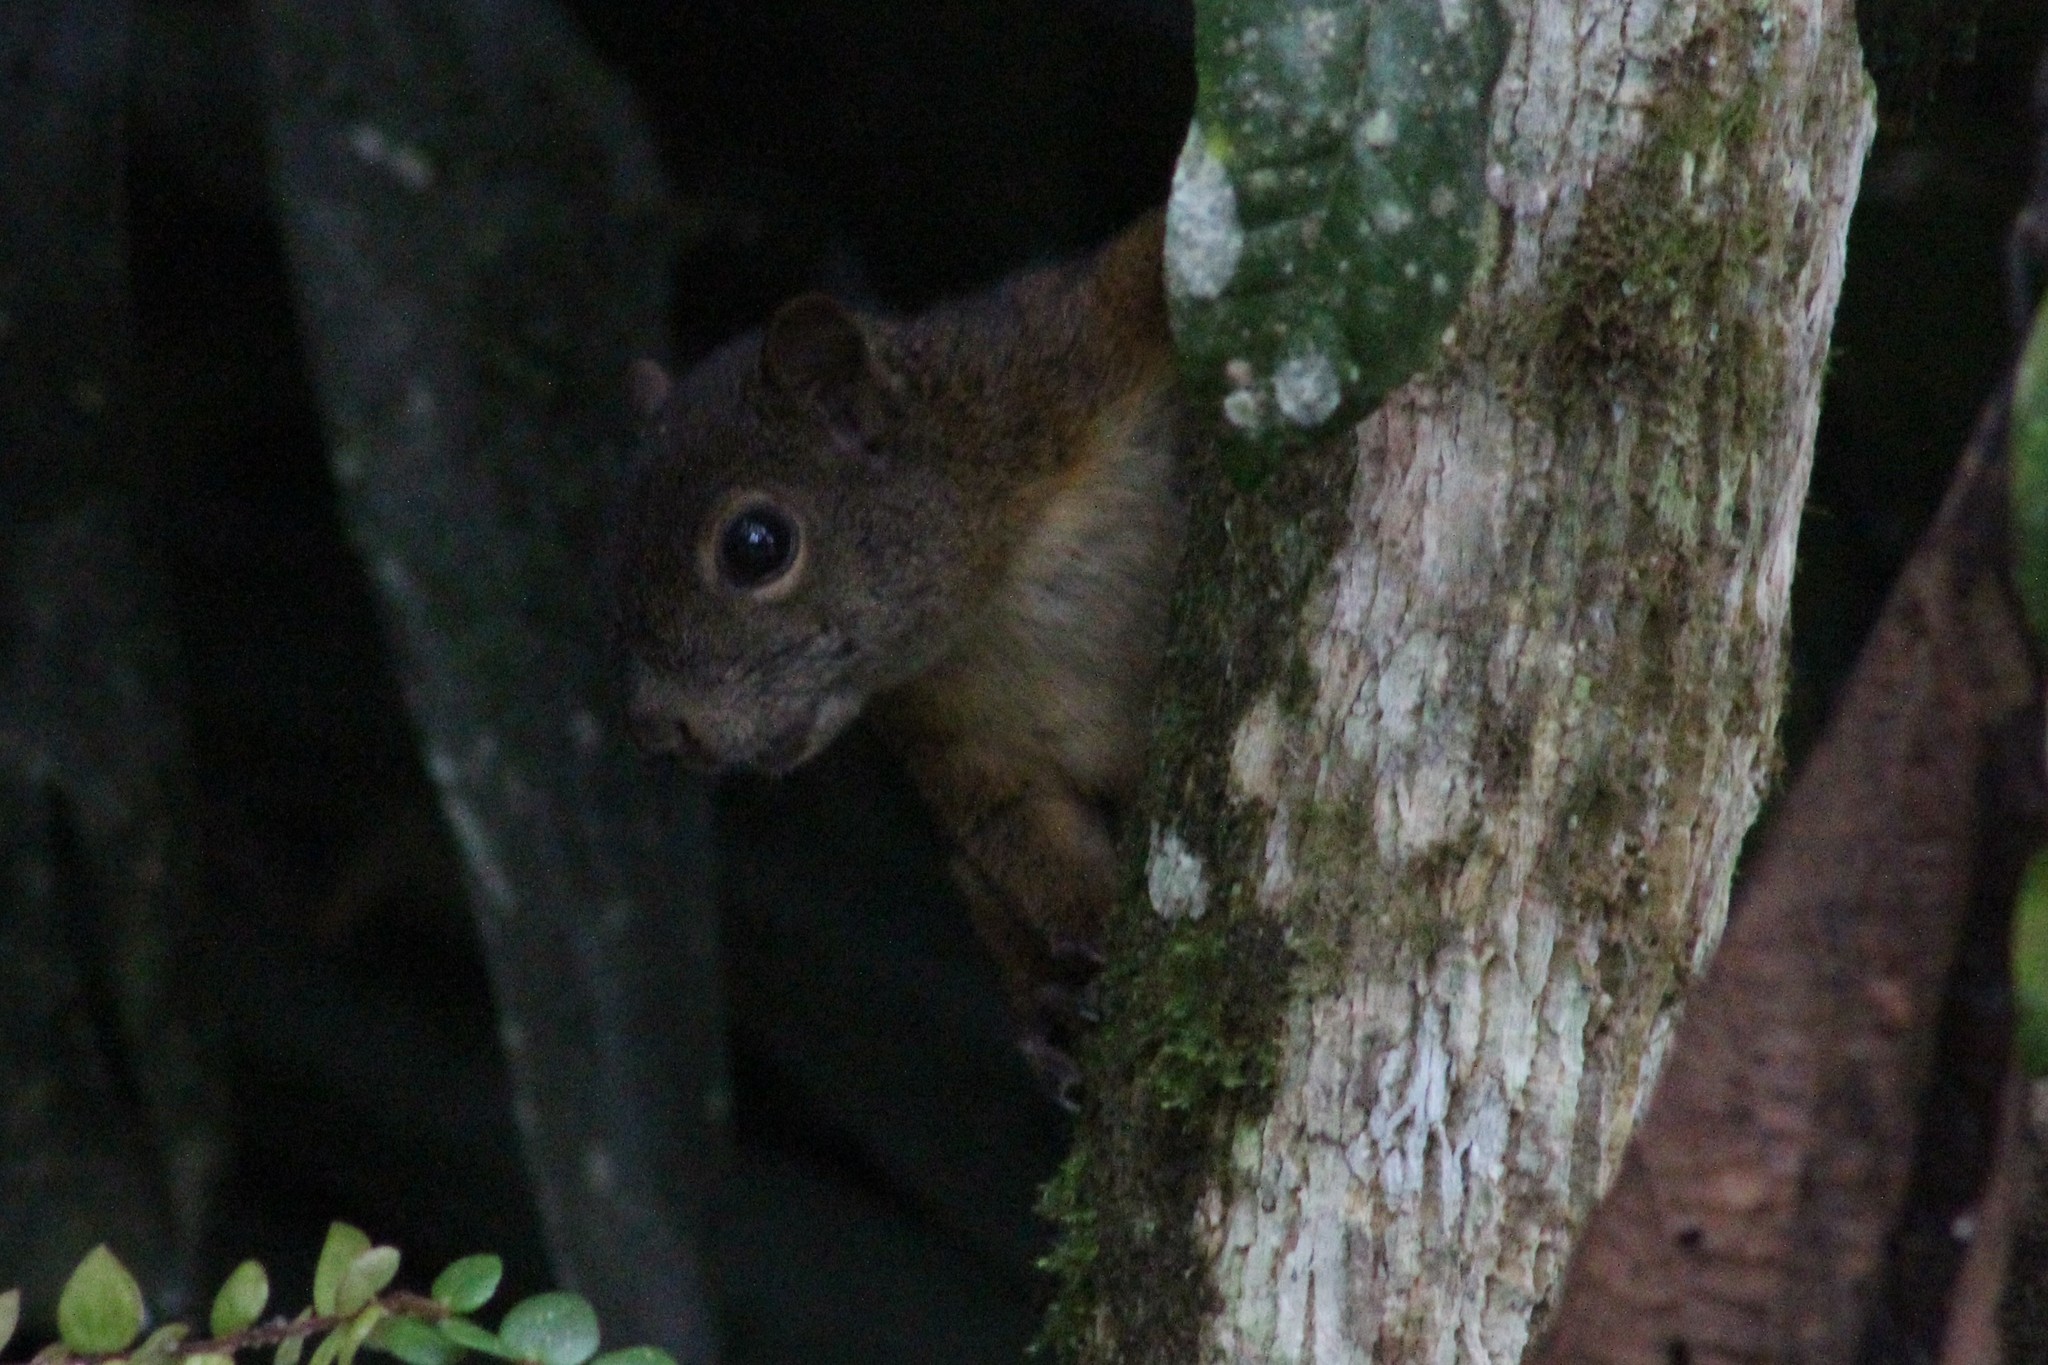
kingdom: Animalia
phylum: Chordata
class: Mammalia
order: Rodentia
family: Sciuridae
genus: Sciurus
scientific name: Sciurus granatensis
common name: Red-tailed squirrel
